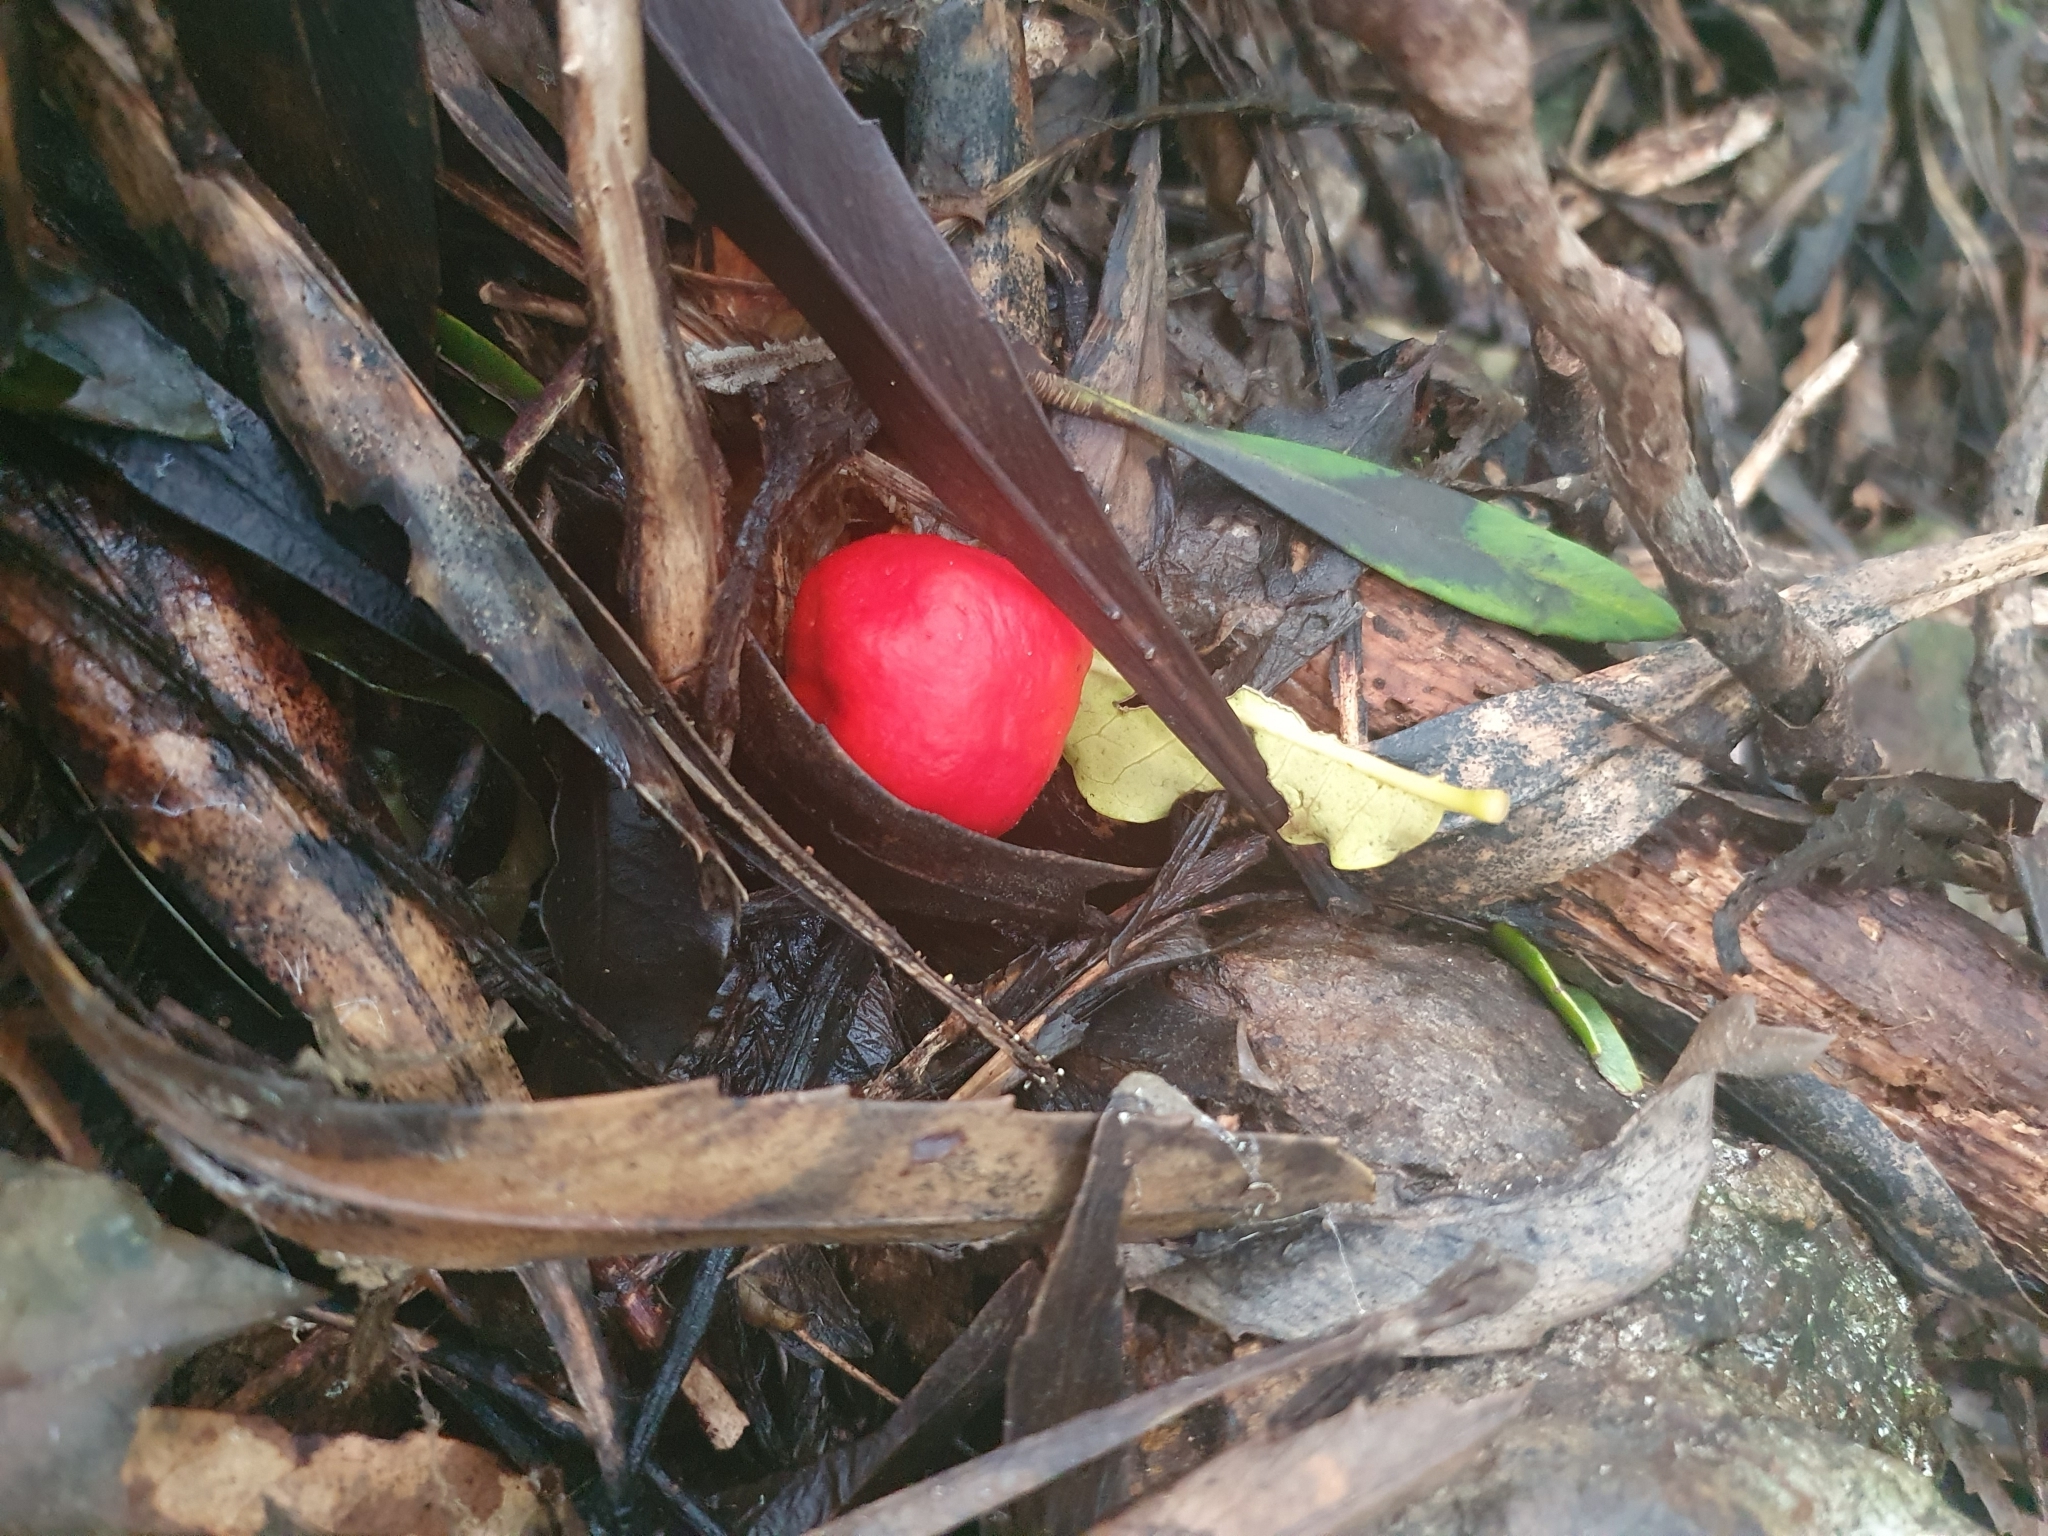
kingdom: Fungi
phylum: Basidiomycota
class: Agaricomycetes
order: Agaricales
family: Strophariaceae
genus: Leratiomyces
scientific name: Leratiomyces erythrocephalus
